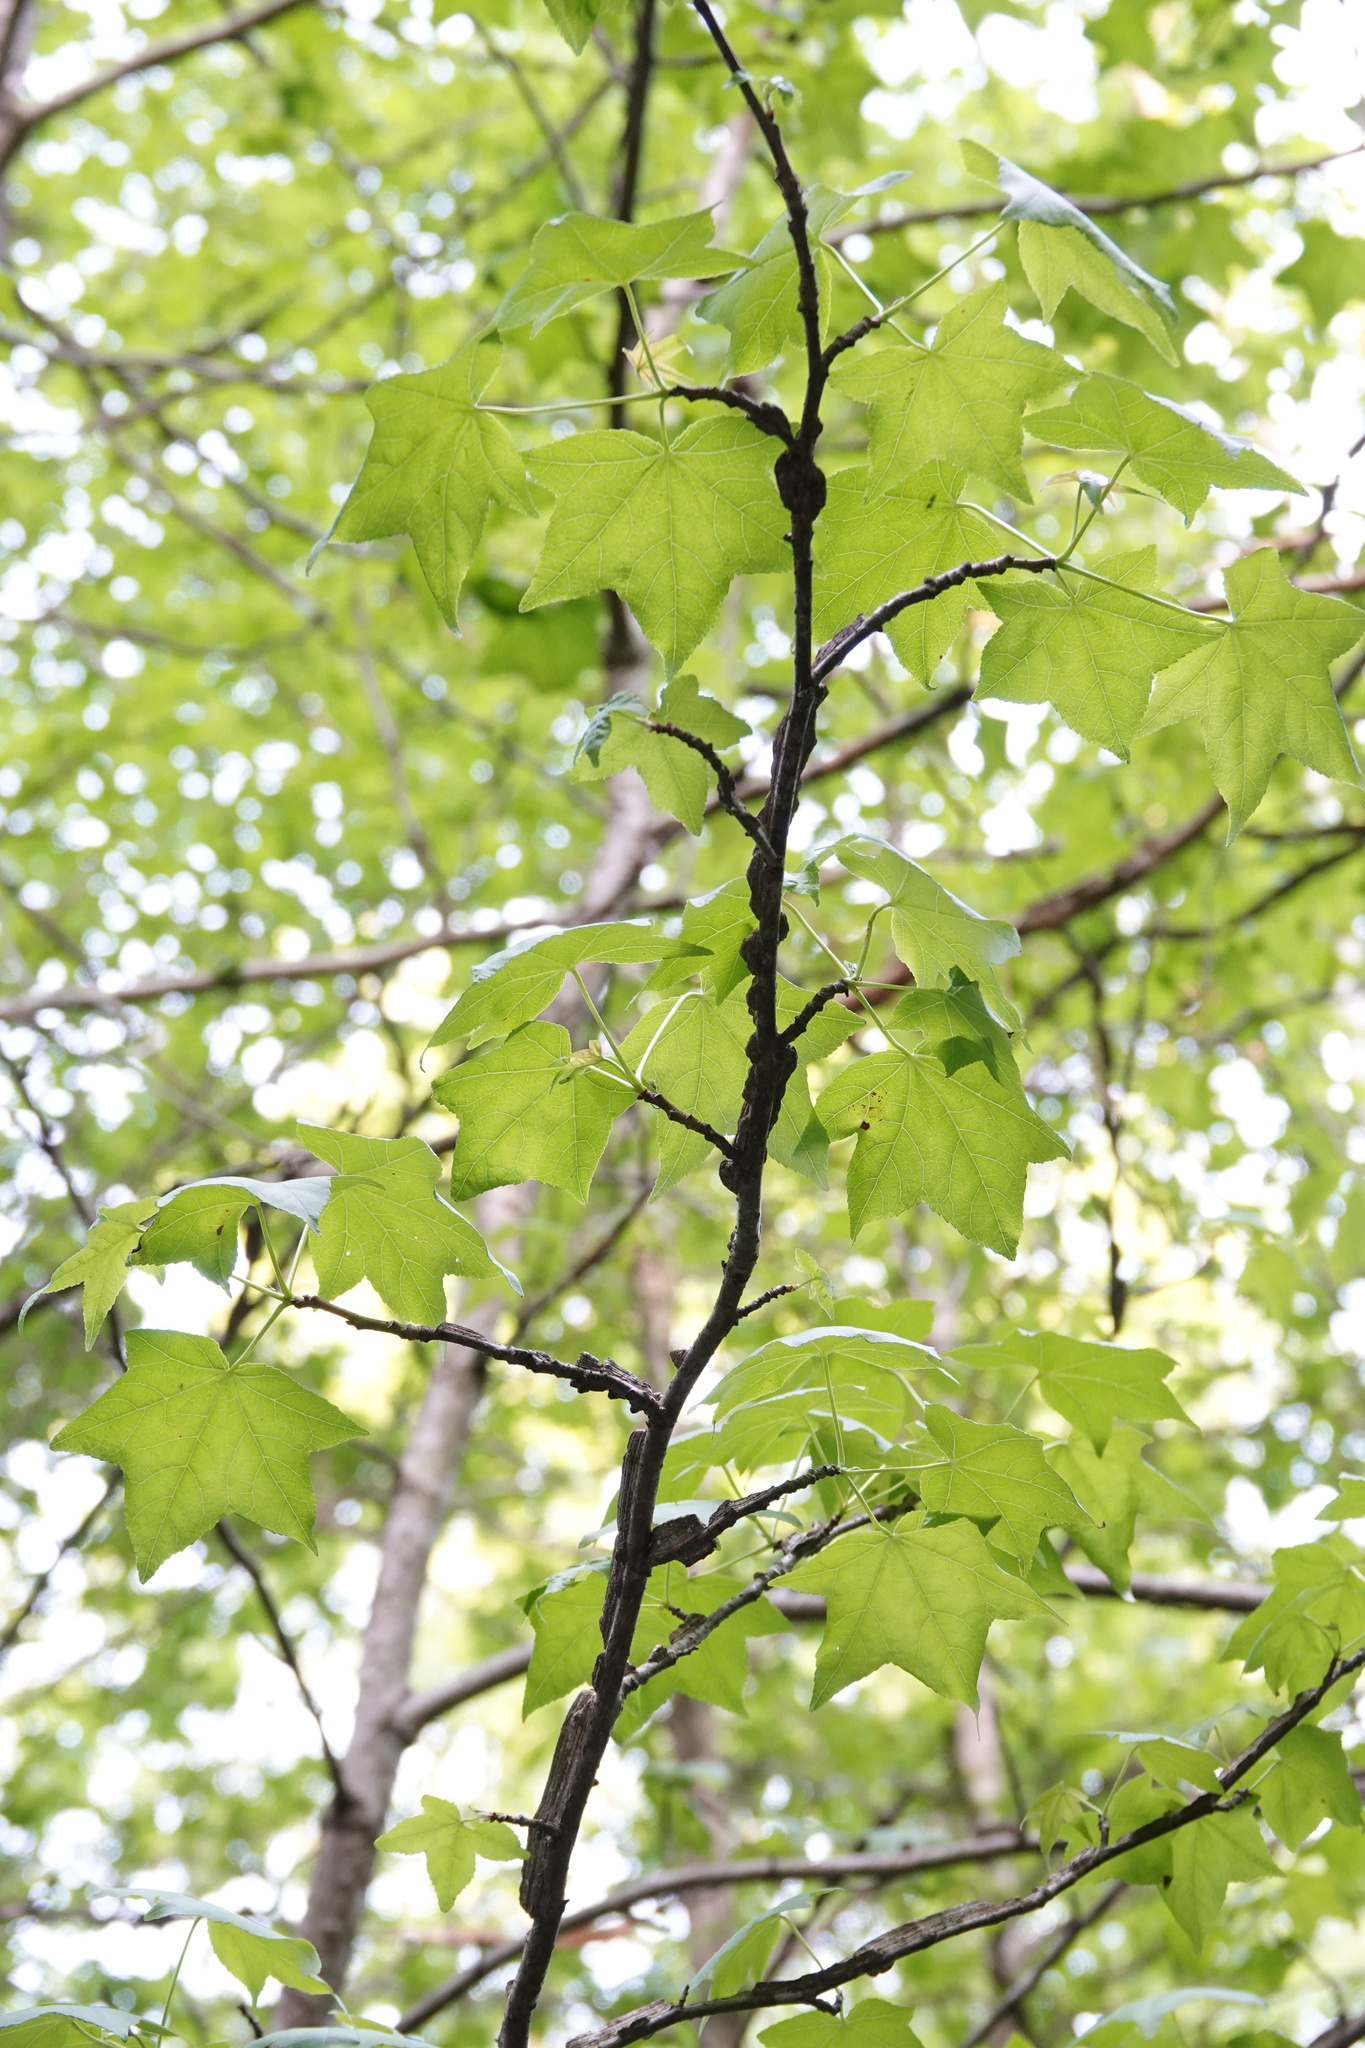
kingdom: Plantae
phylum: Tracheophyta
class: Magnoliopsida
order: Saxifragales
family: Altingiaceae
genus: Liquidambar
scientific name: Liquidambar styraciflua
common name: Sweet gum
